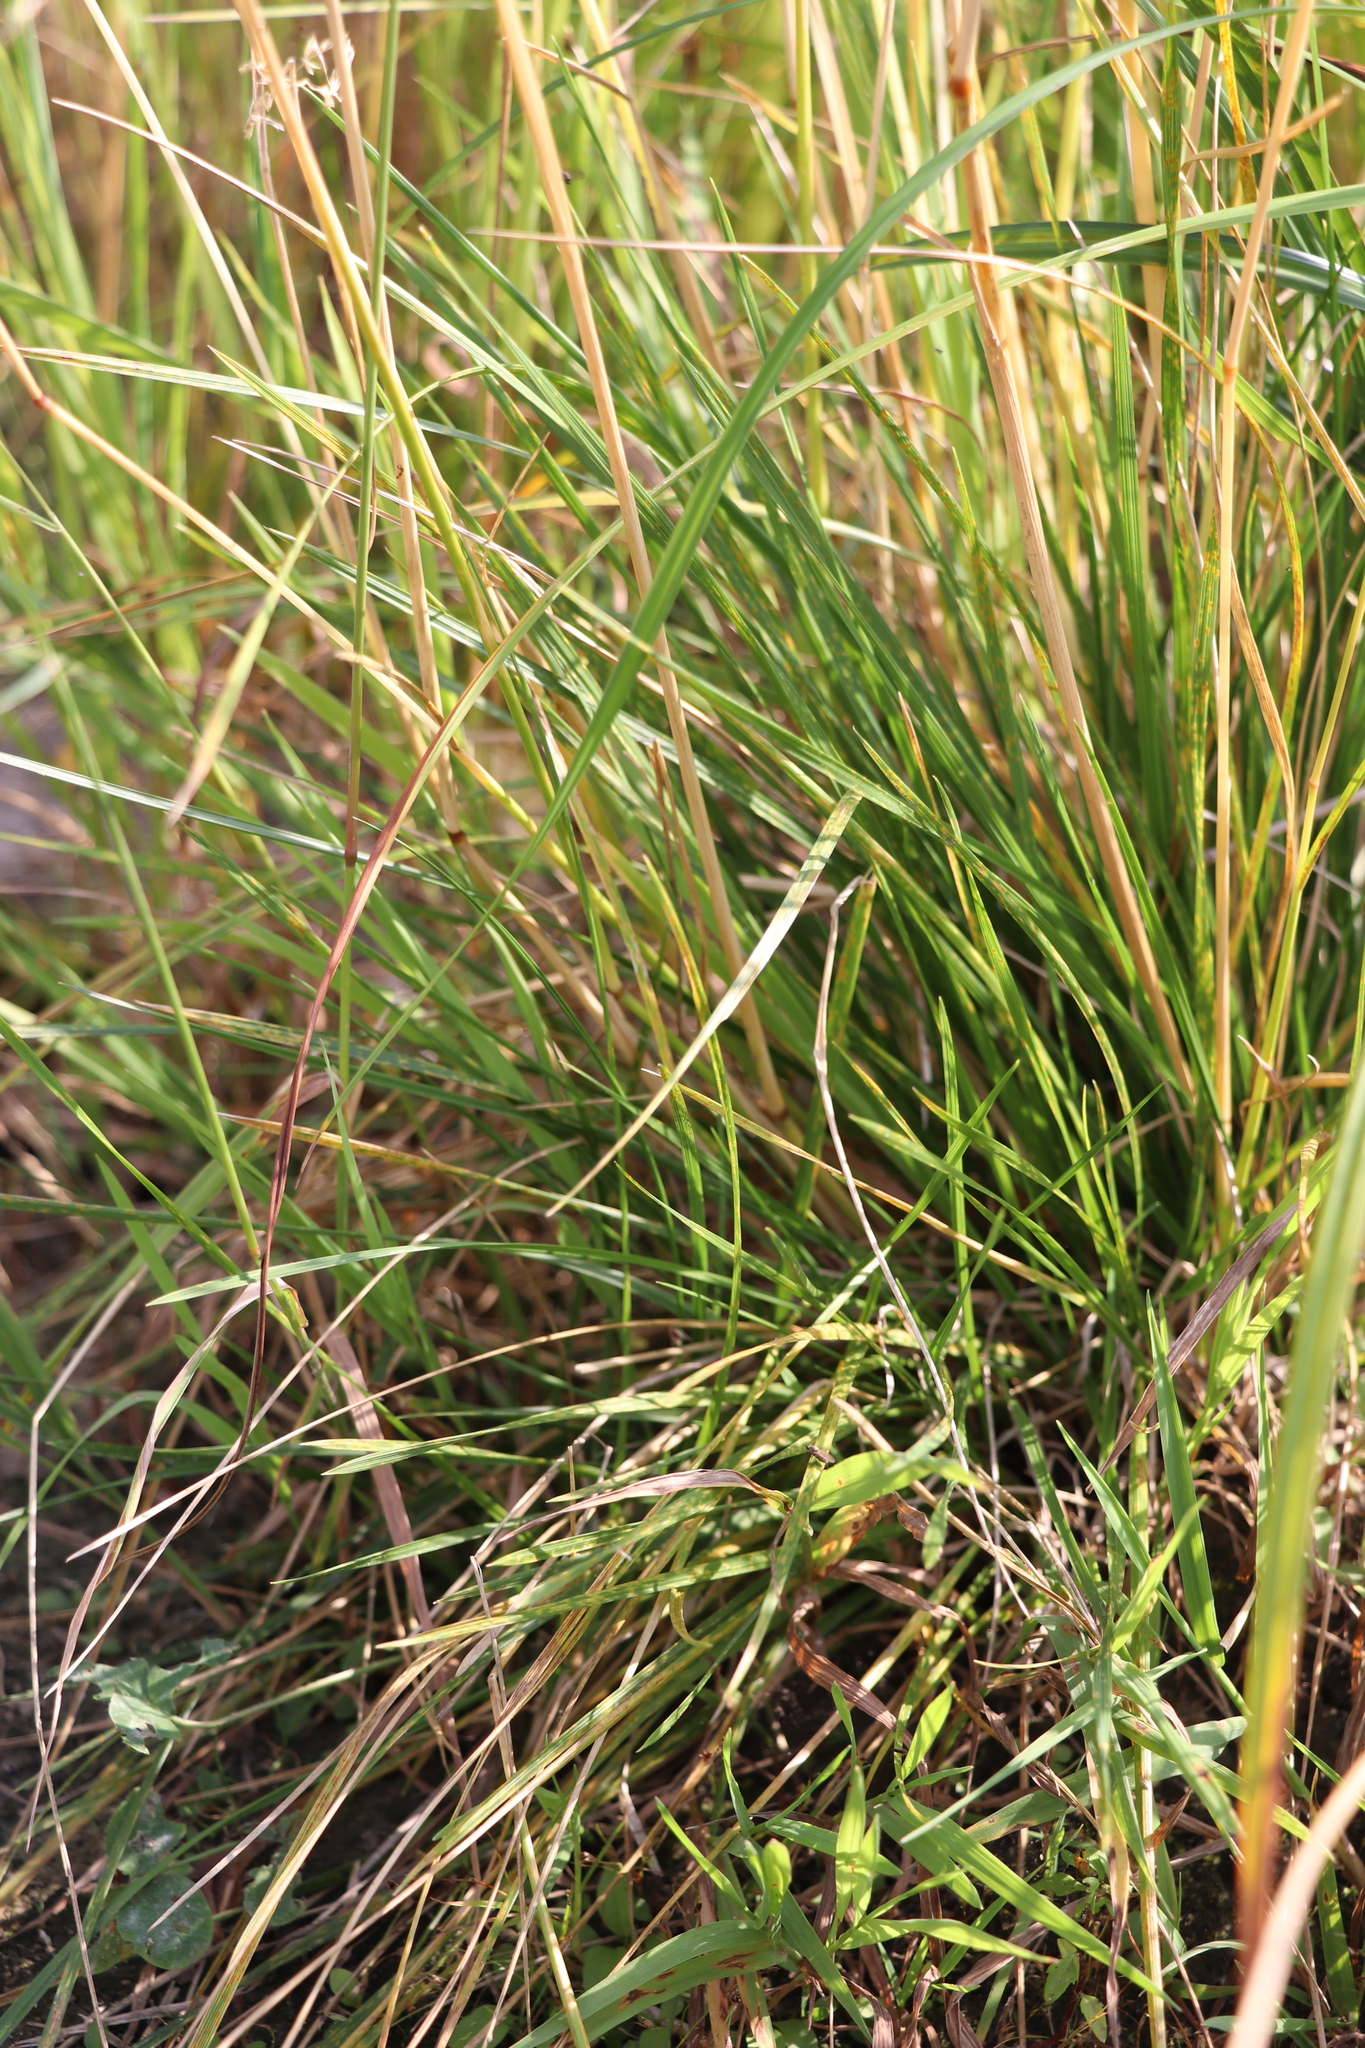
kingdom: Plantae
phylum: Tracheophyta
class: Liliopsida
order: Poales
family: Poaceae
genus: Deschampsia
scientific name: Deschampsia cespitosa
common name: Tufted hair-grass
